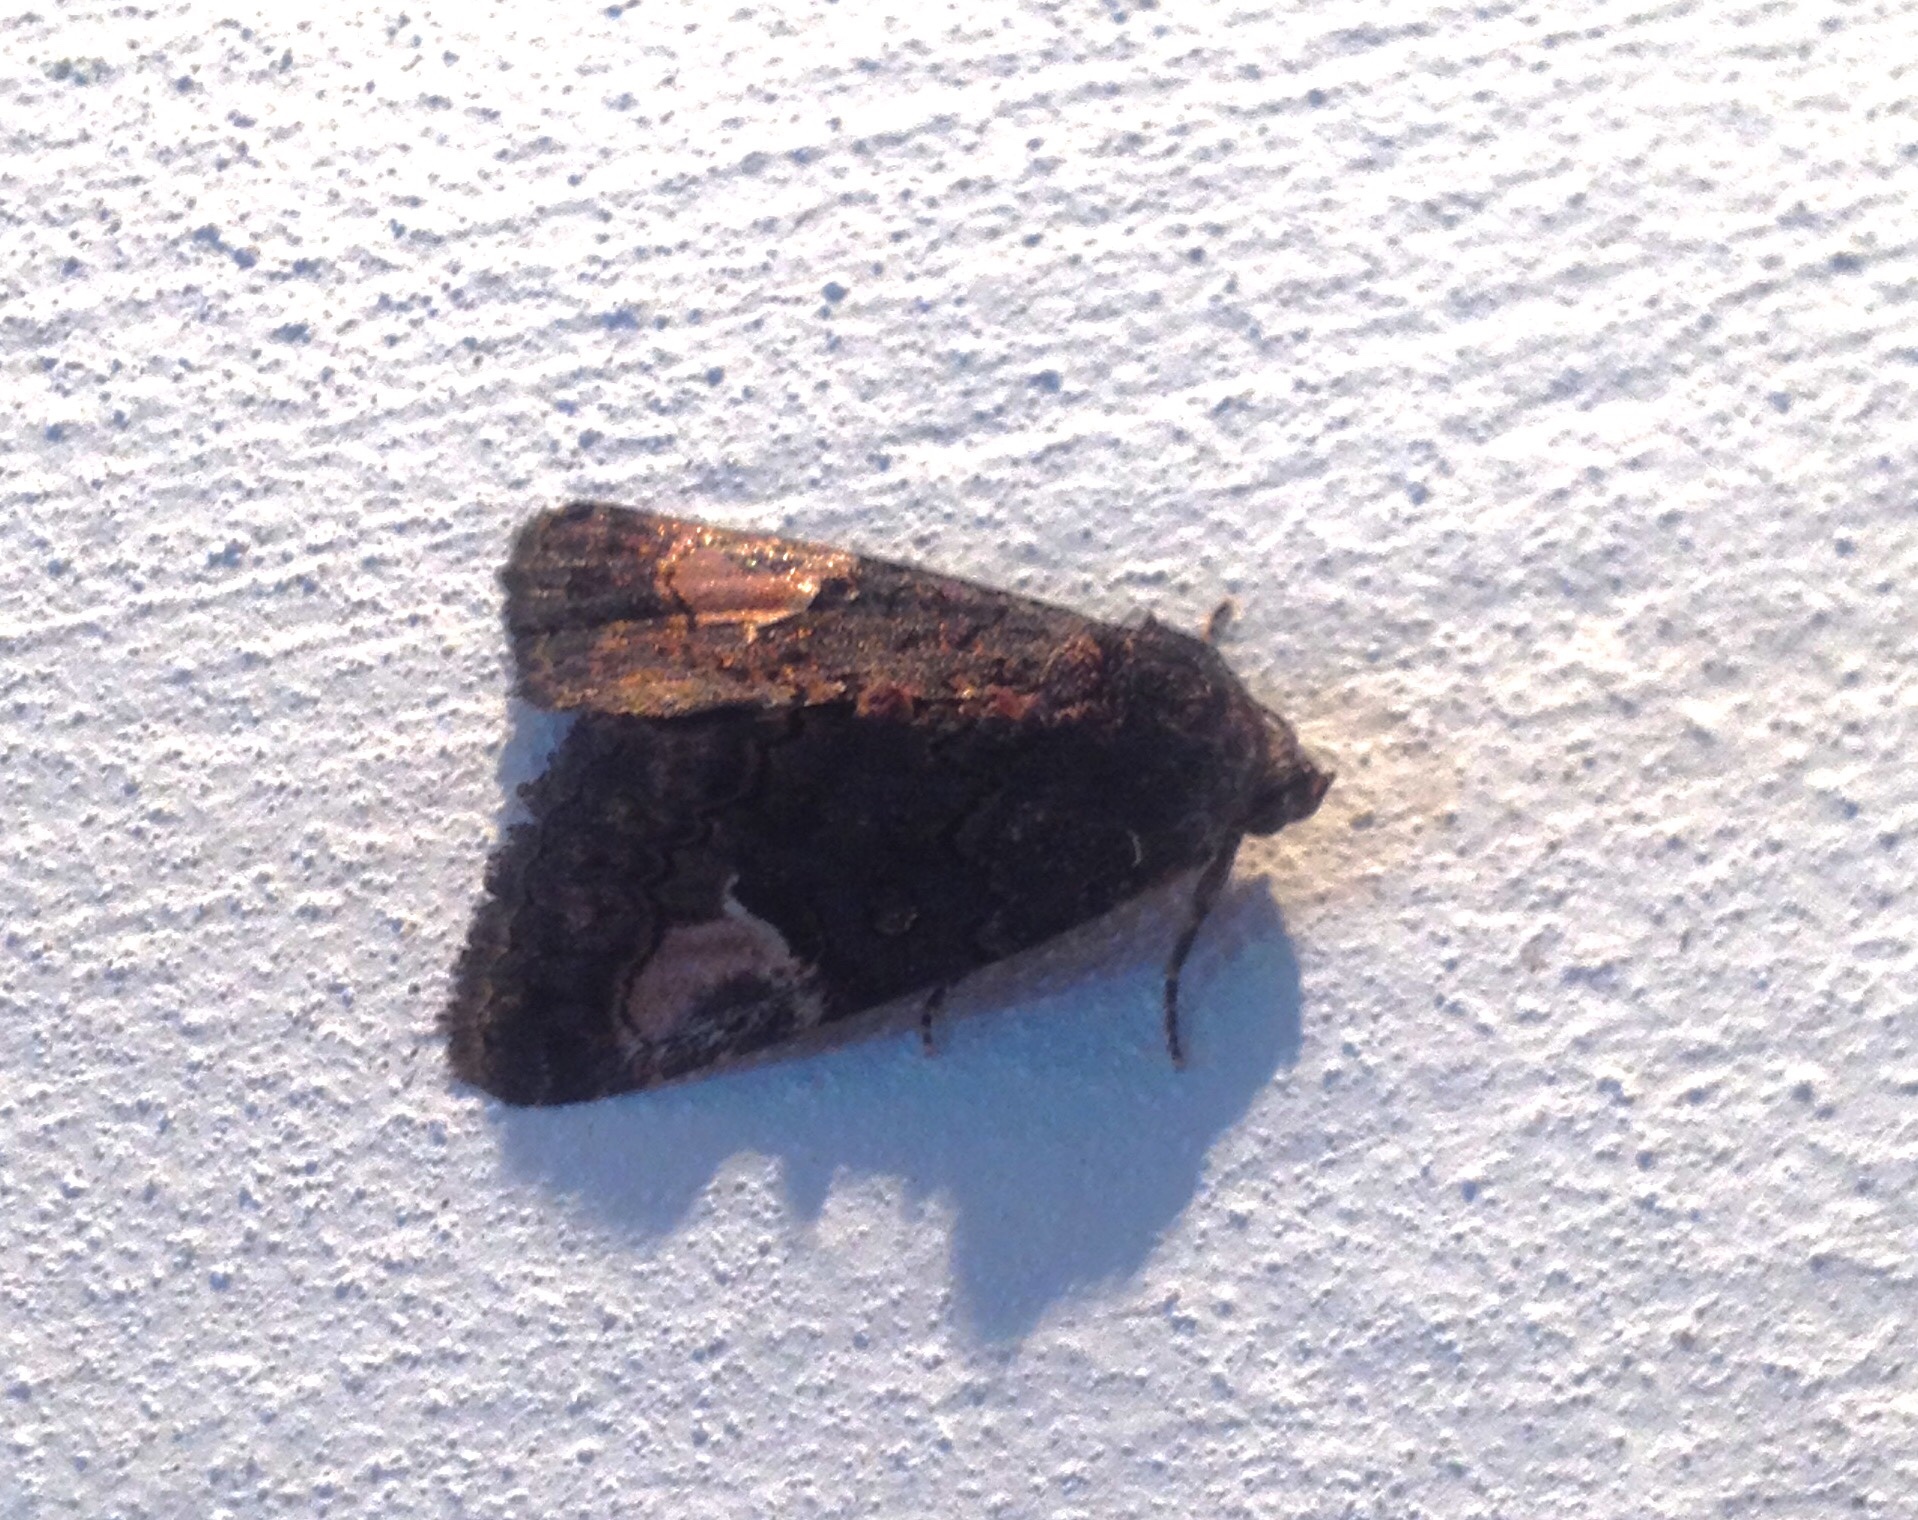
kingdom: Animalia
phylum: Arthropoda
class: Insecta
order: Lepidoptera
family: Noctuidae
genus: Aedia
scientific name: Aedia funesta
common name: The druid
